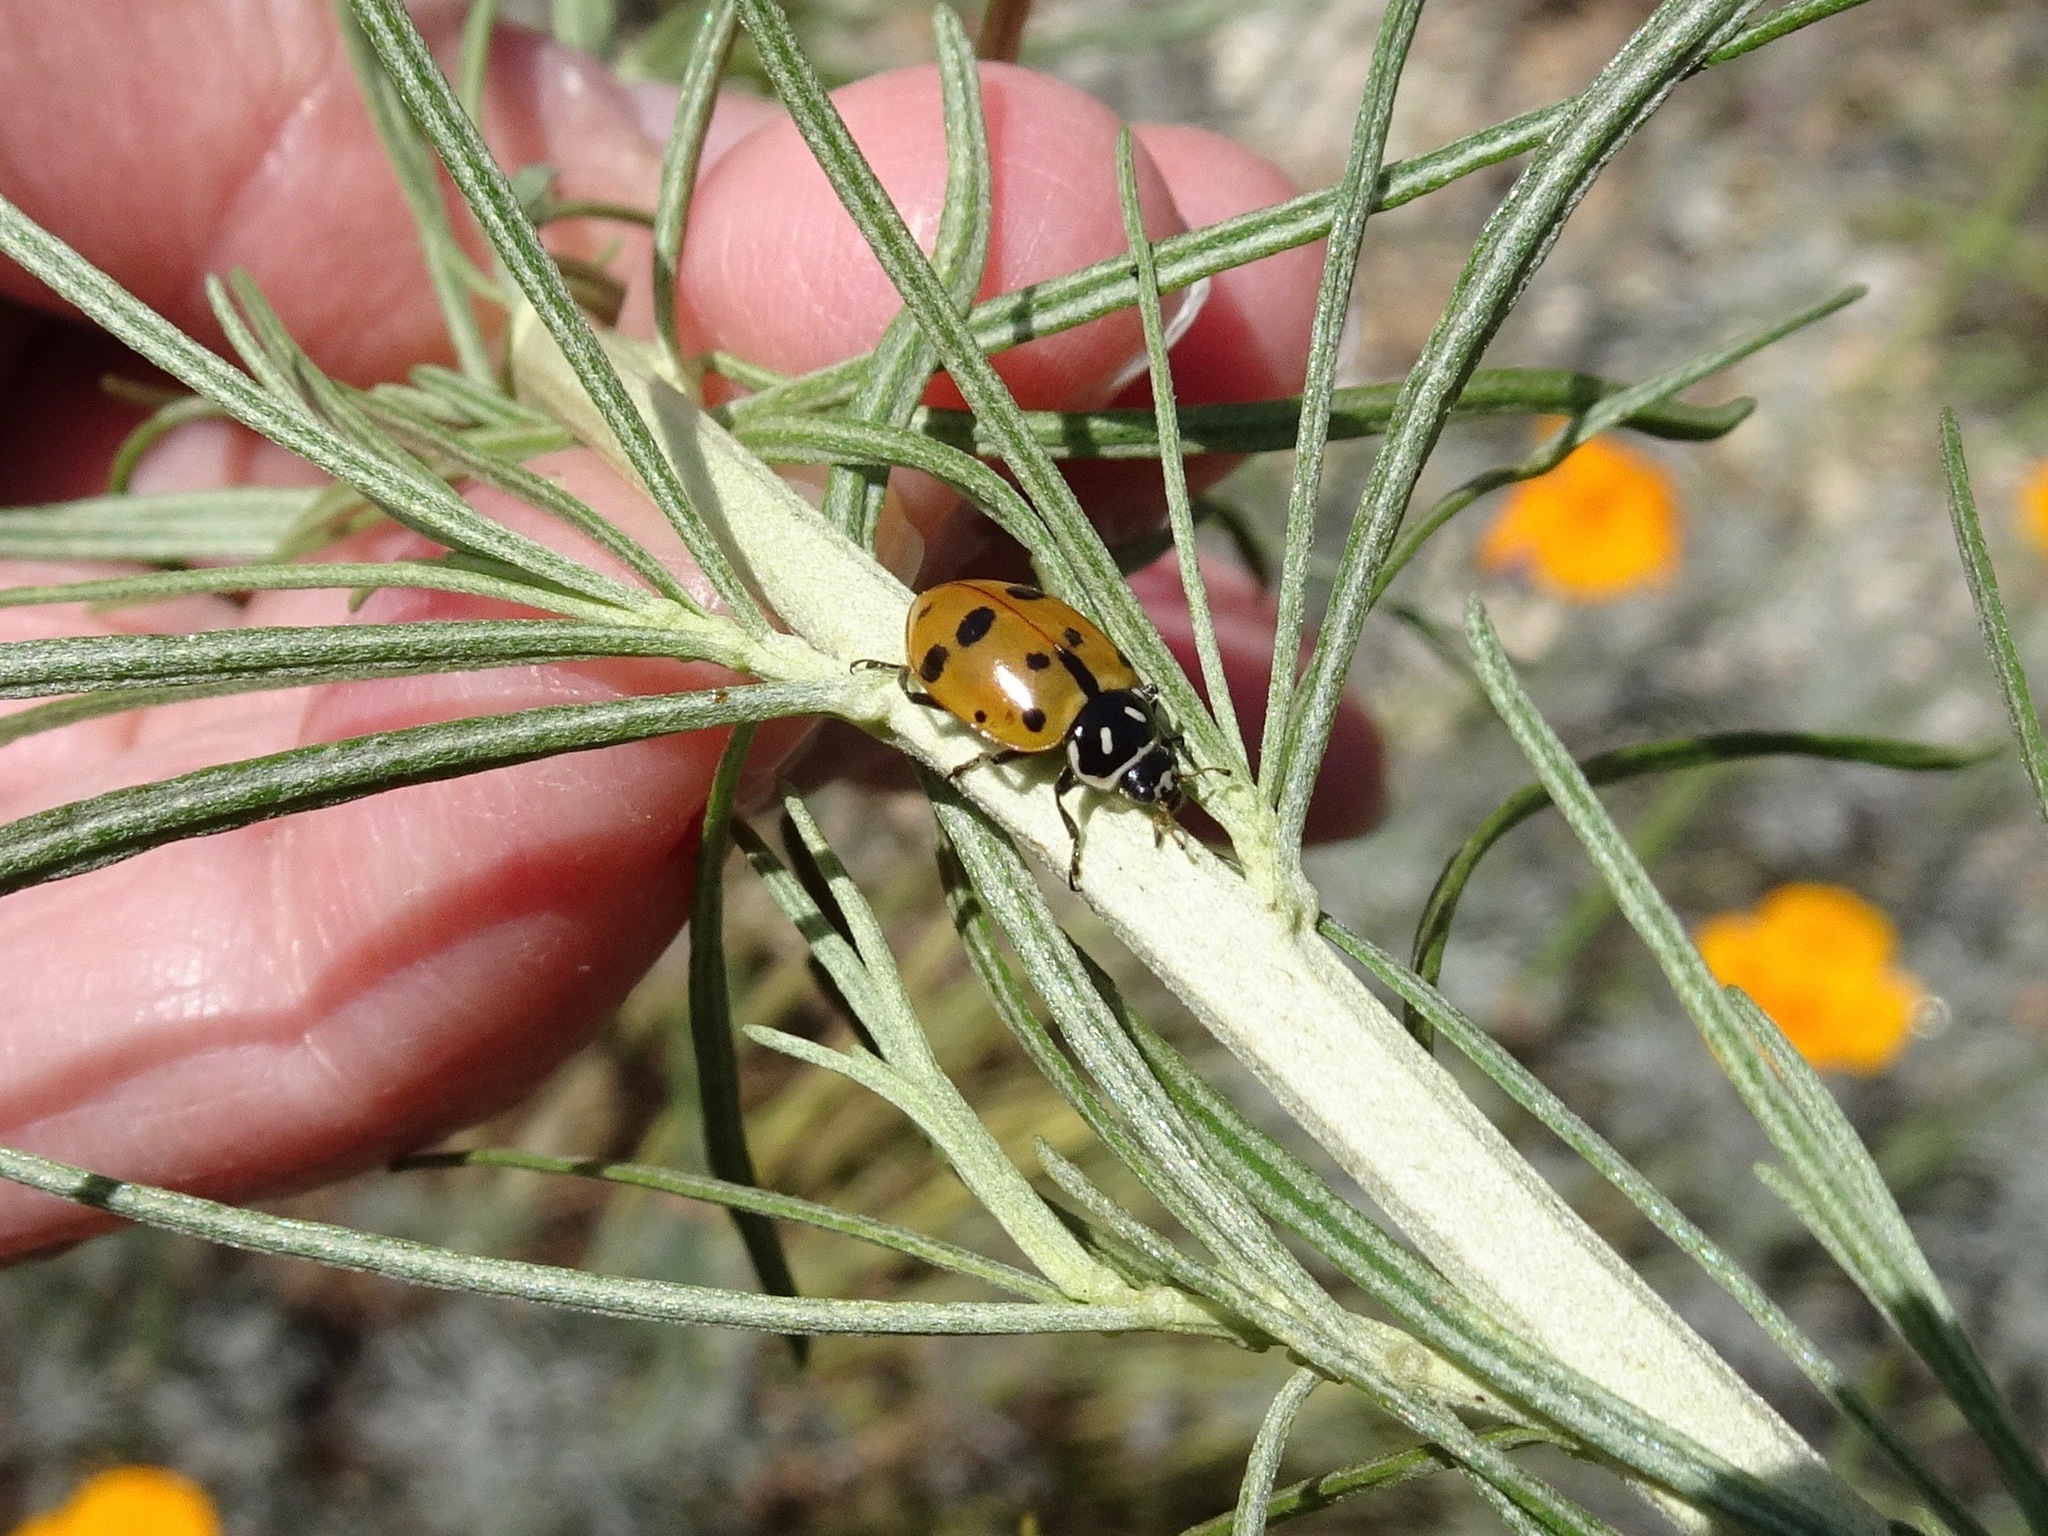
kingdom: Animalia
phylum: Arthropoda
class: Insecta
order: Coleoptera
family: Coccinellidae
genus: Hippodamia
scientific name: Hippodamia convergens
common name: Convergent lady beetle
